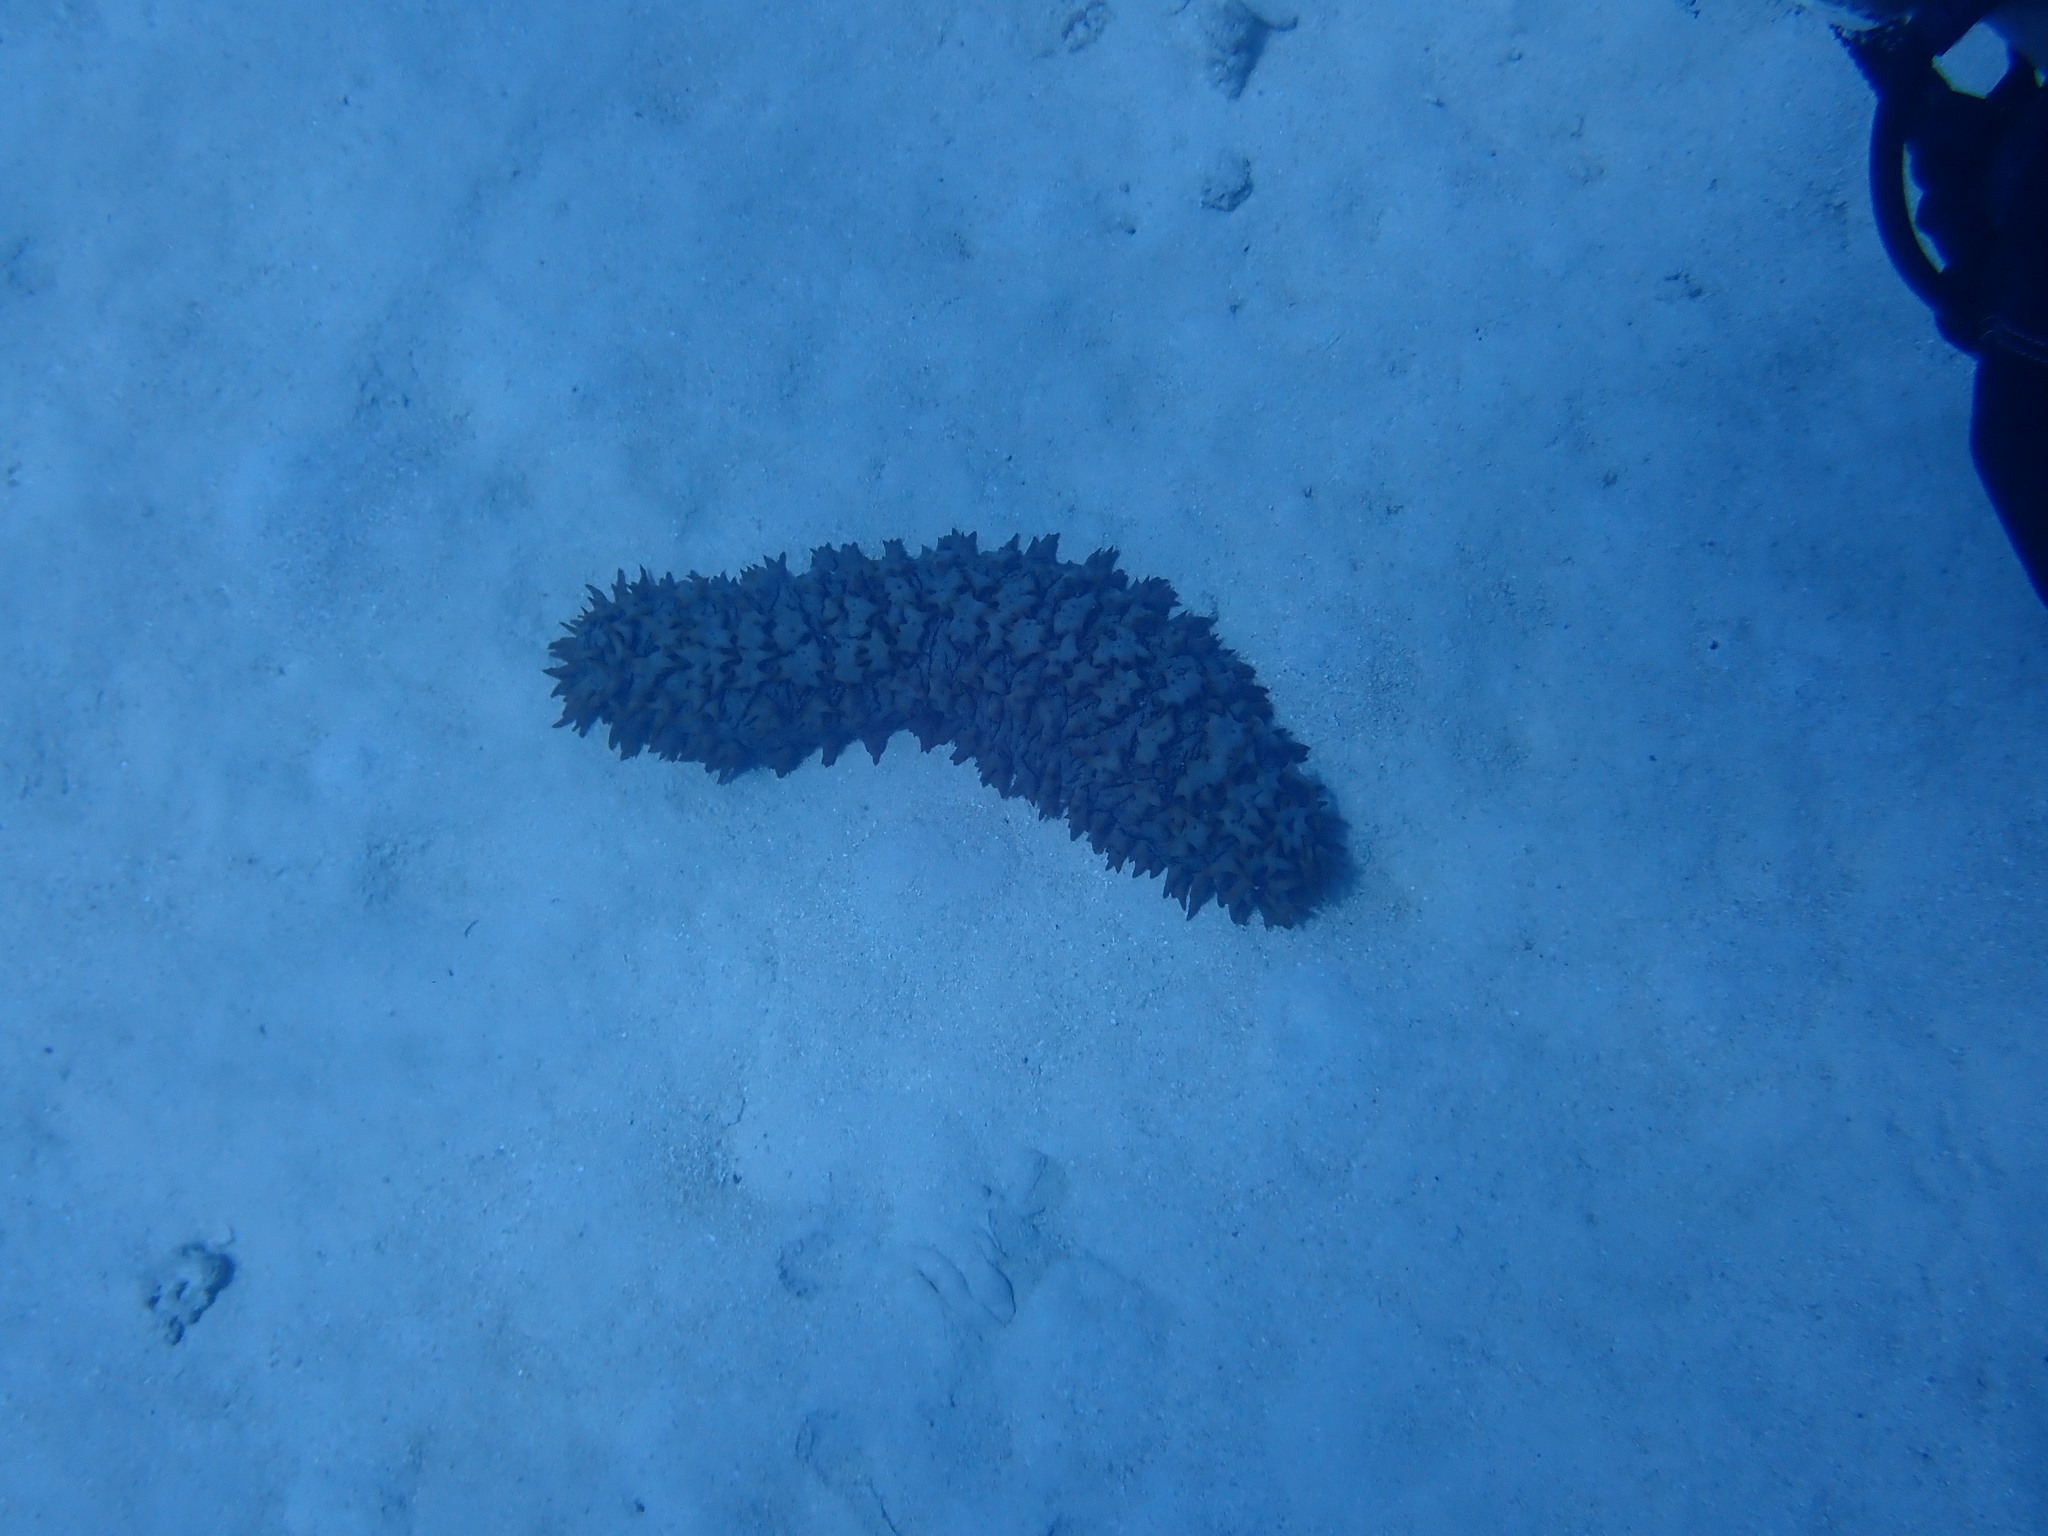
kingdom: Animalia
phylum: Echinodermata
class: Holothuroidea
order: Synallactida
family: Stichopodidae
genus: Thelenota
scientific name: Thelenota ananas
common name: Prickly redfish
